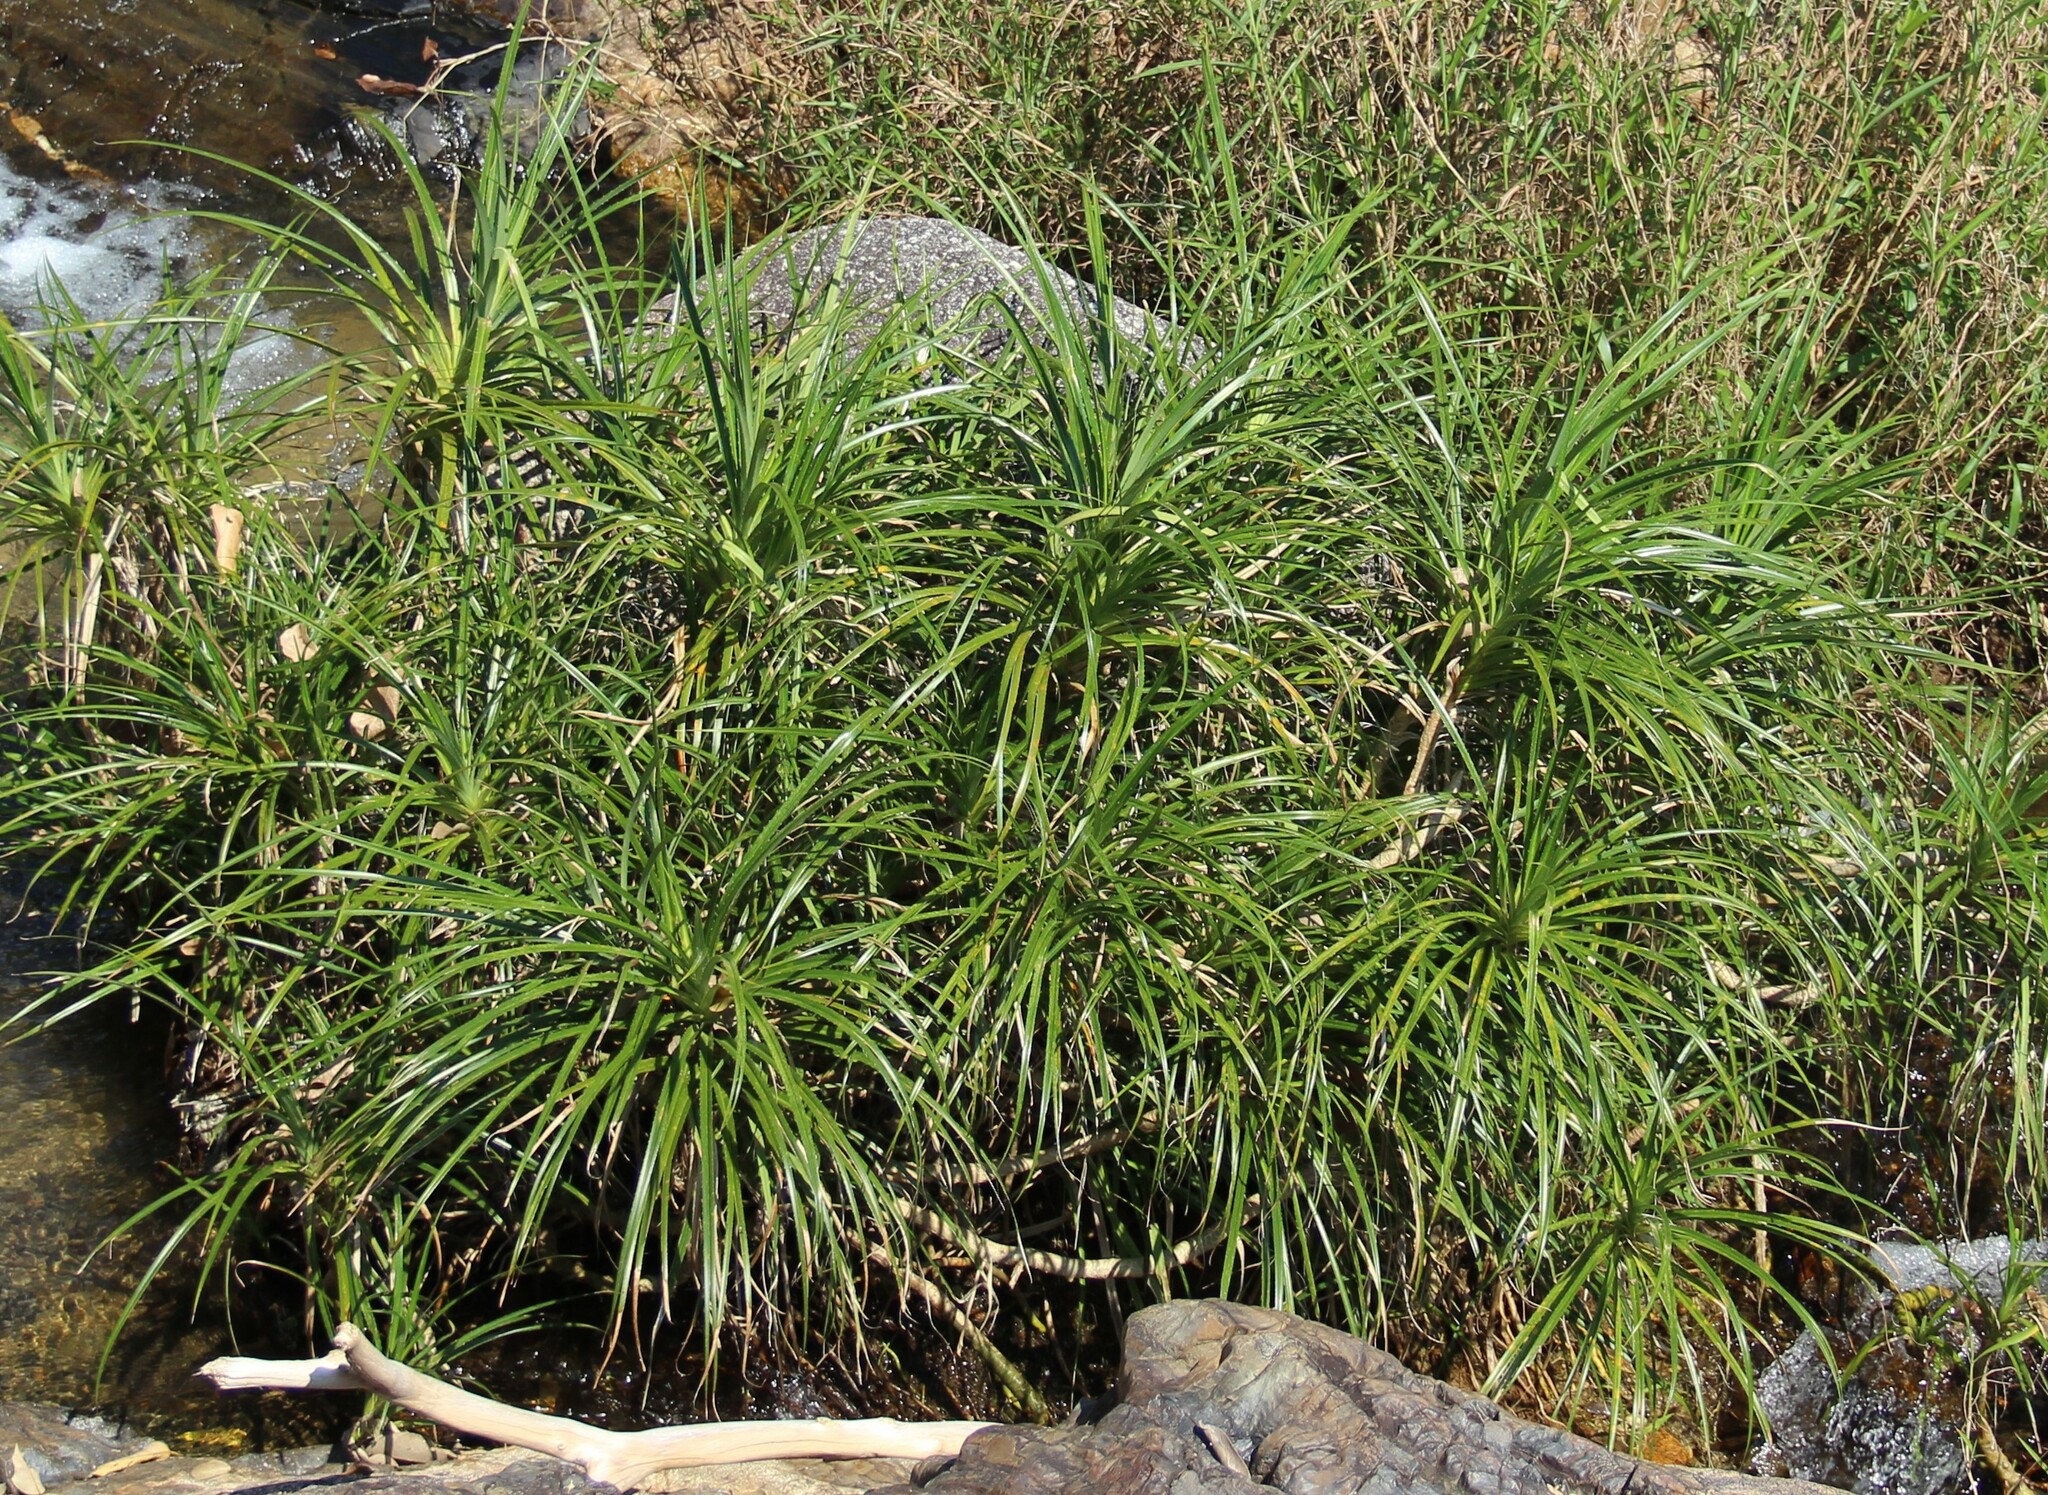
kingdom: Plantae
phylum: Tracheophyta
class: Liliopsida
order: Pandanales
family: Pandanaceae
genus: Pandanus
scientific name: Pandanus fibrosus
